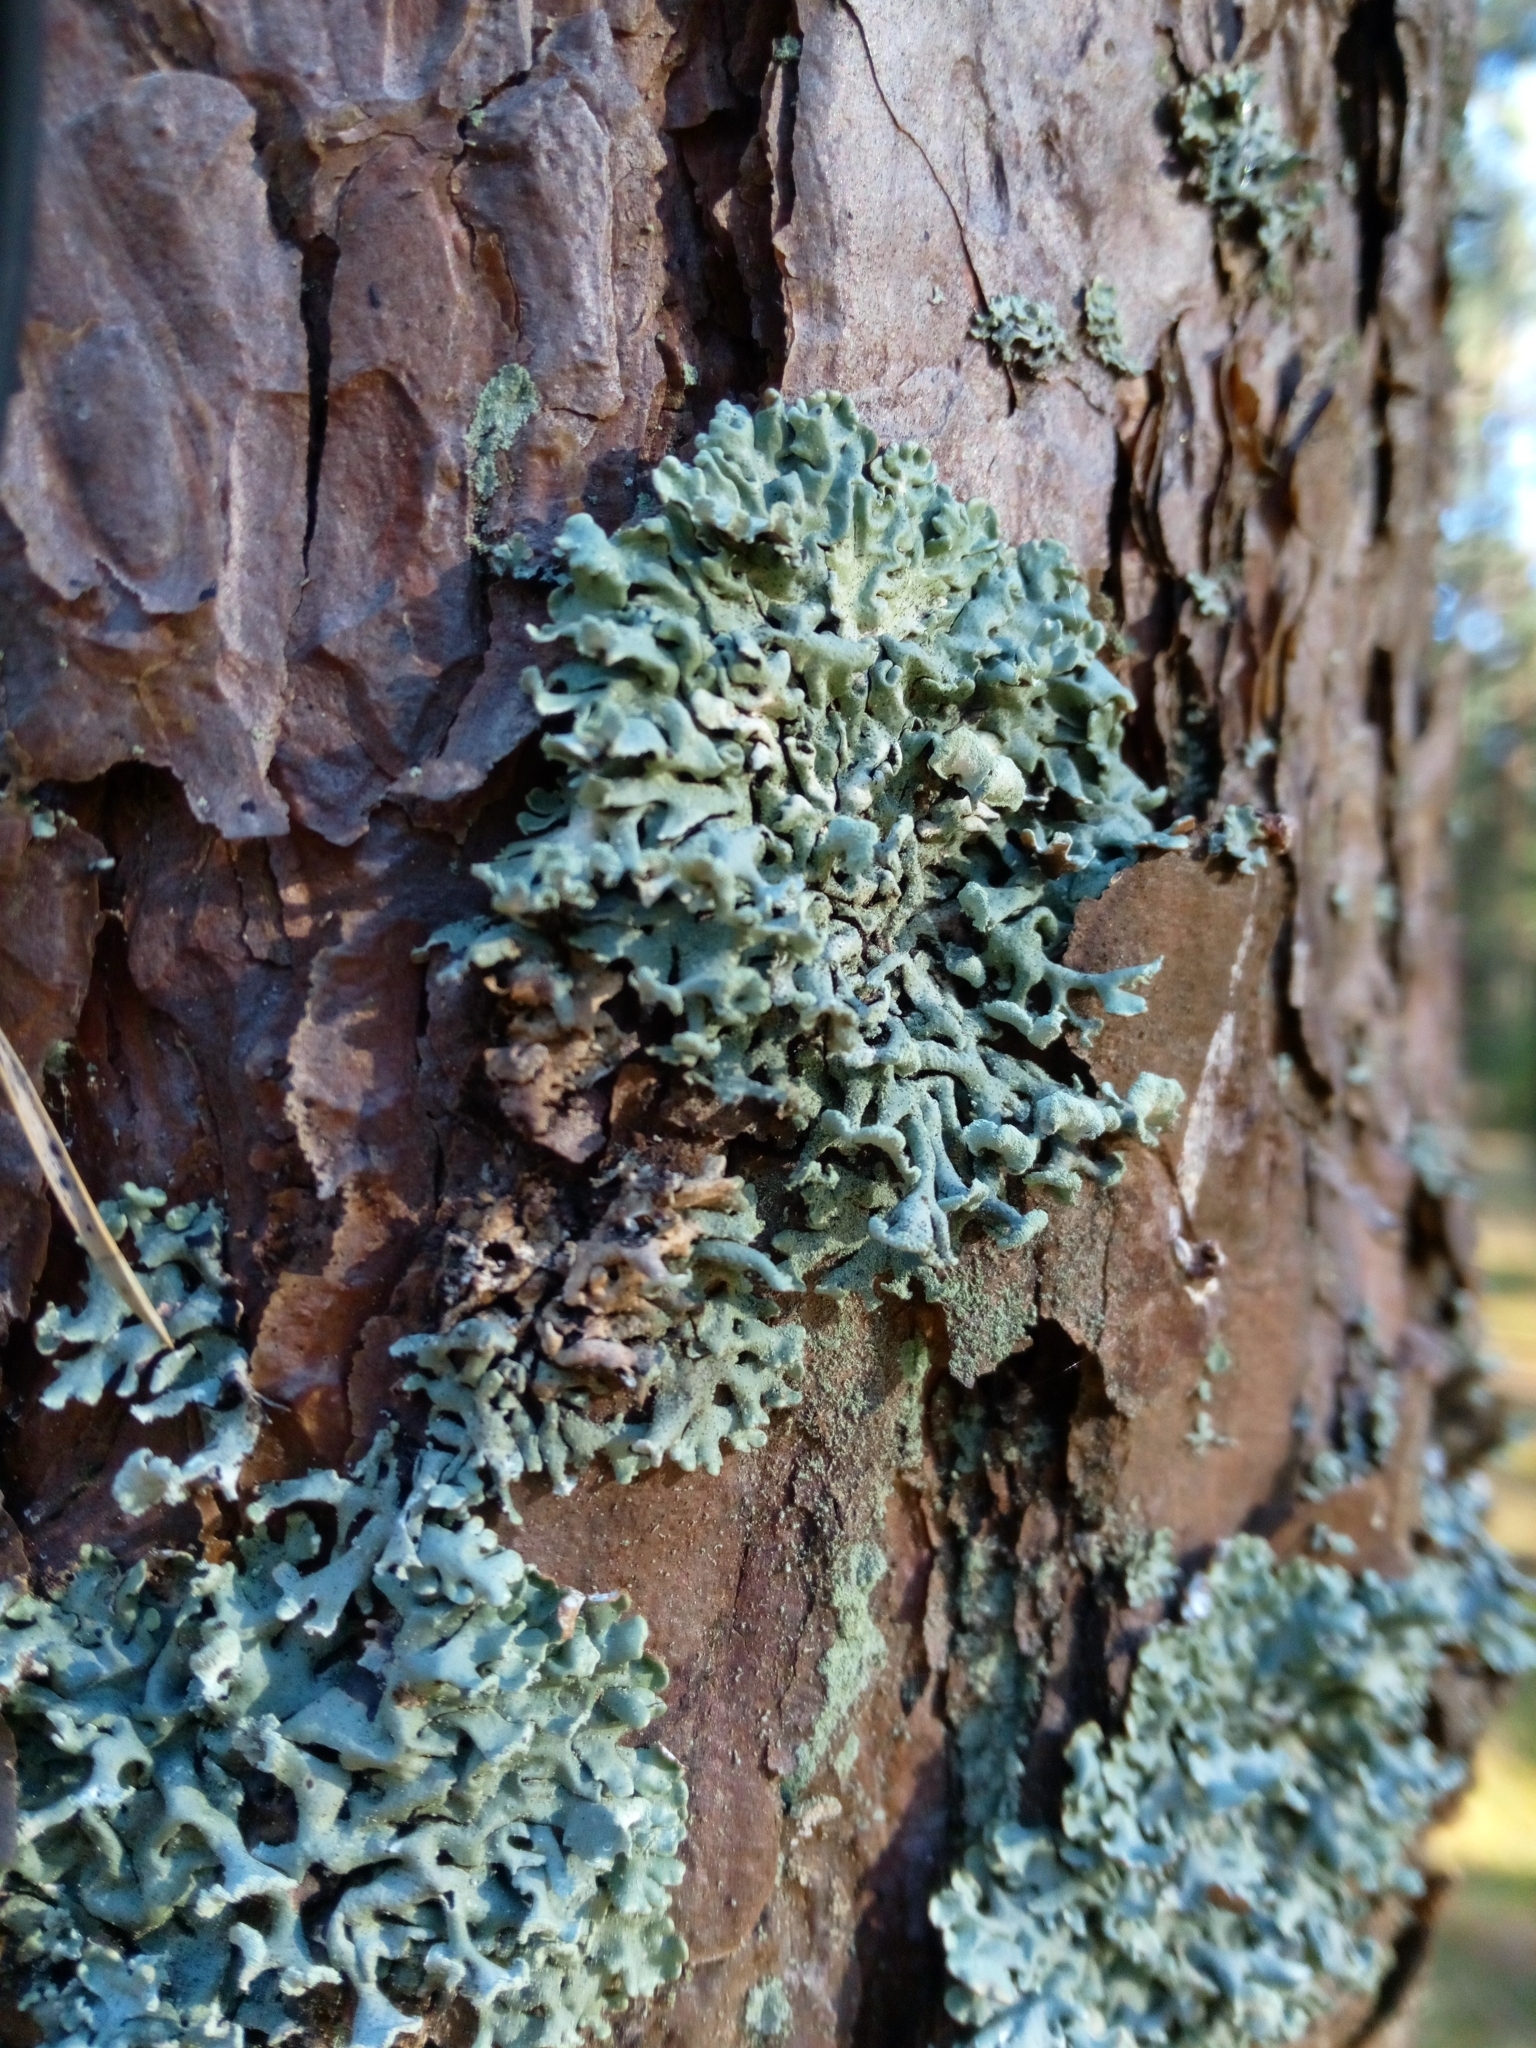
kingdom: Fungi
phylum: Ascomycota
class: Lecanoromycetes
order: Lecanorales
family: Parmeliaceae
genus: Hypogymnia
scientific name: Hypogymnia physodes
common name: Dark crottle
